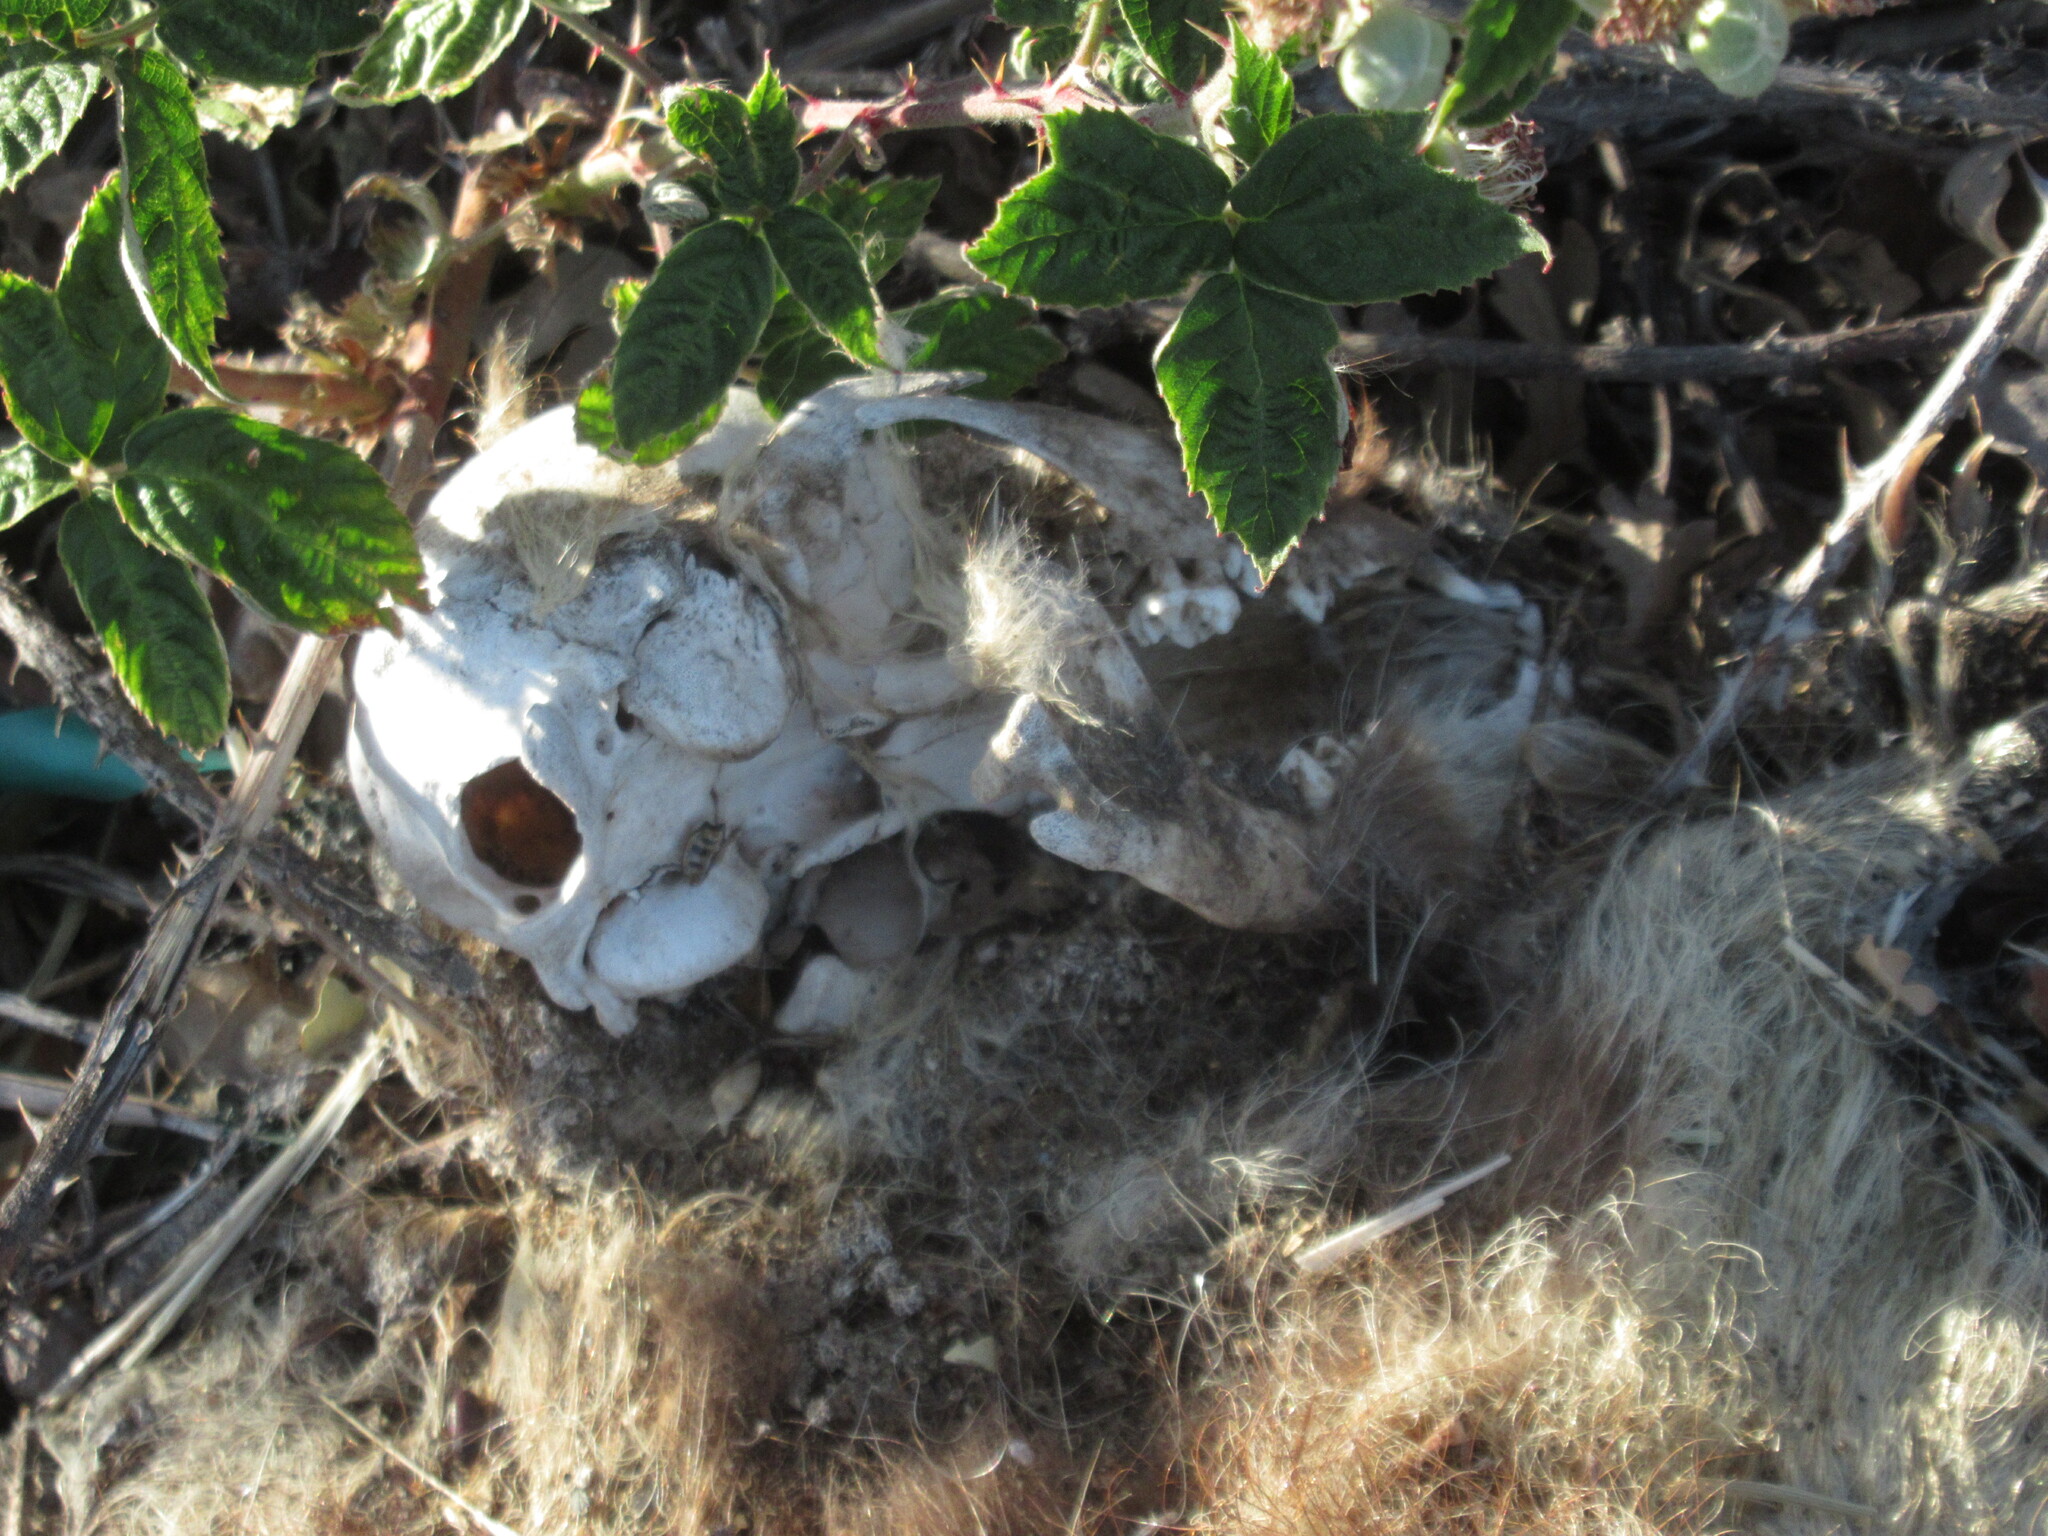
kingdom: Animalia
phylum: Chordata
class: Mammalia
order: Carnivora
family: Procyonidae
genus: Procyon
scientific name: Procyon lotor
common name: Raccoon
